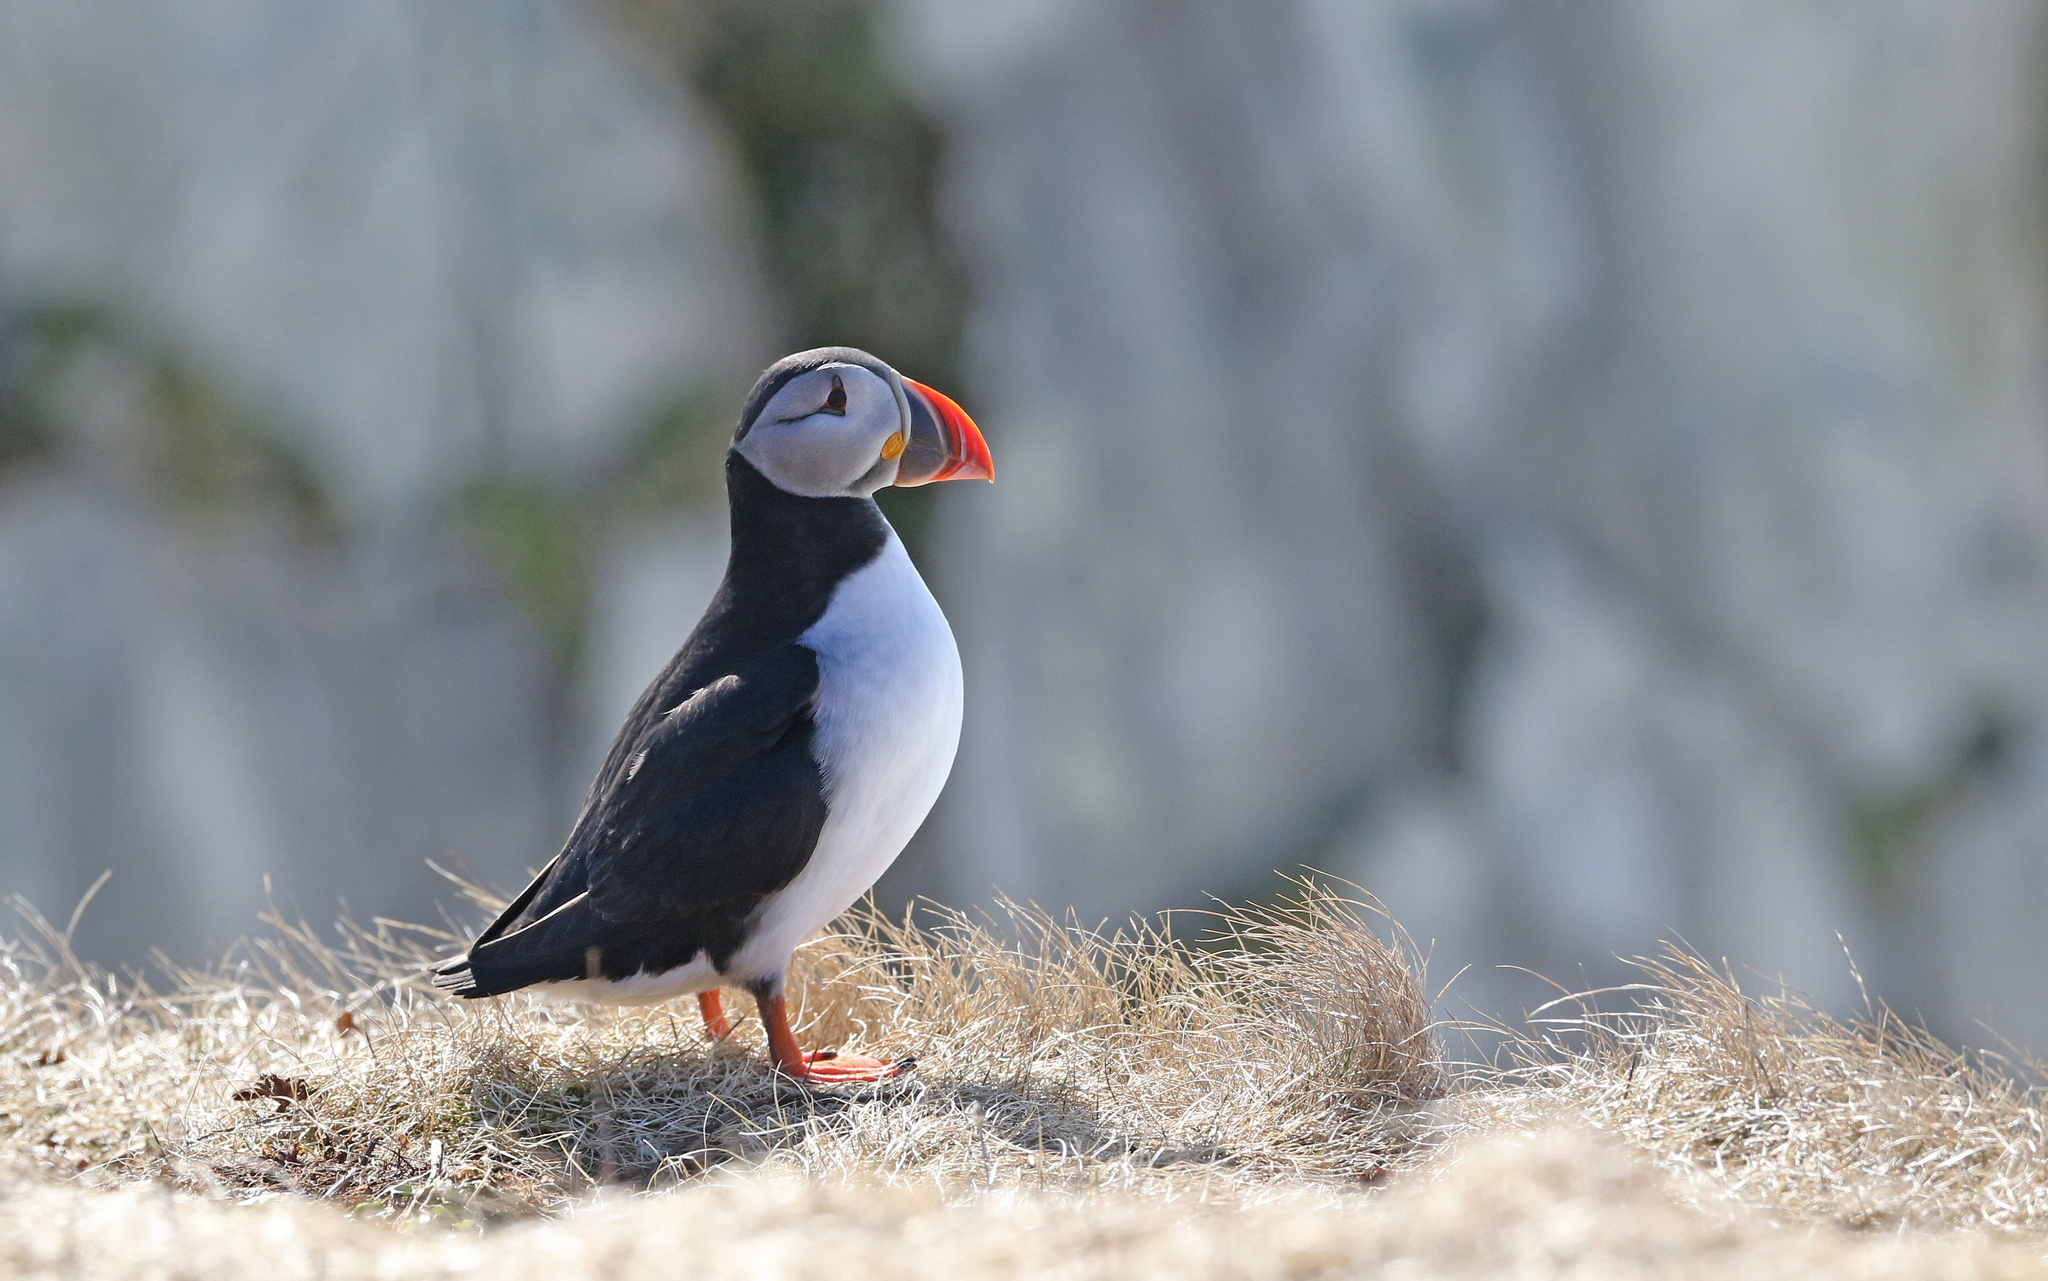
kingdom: Animalia
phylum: Chordata
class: Aves
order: Charadriiformes
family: Alcidae
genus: Fratercula
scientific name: Fratercula arctica
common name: Atlantic puffin
